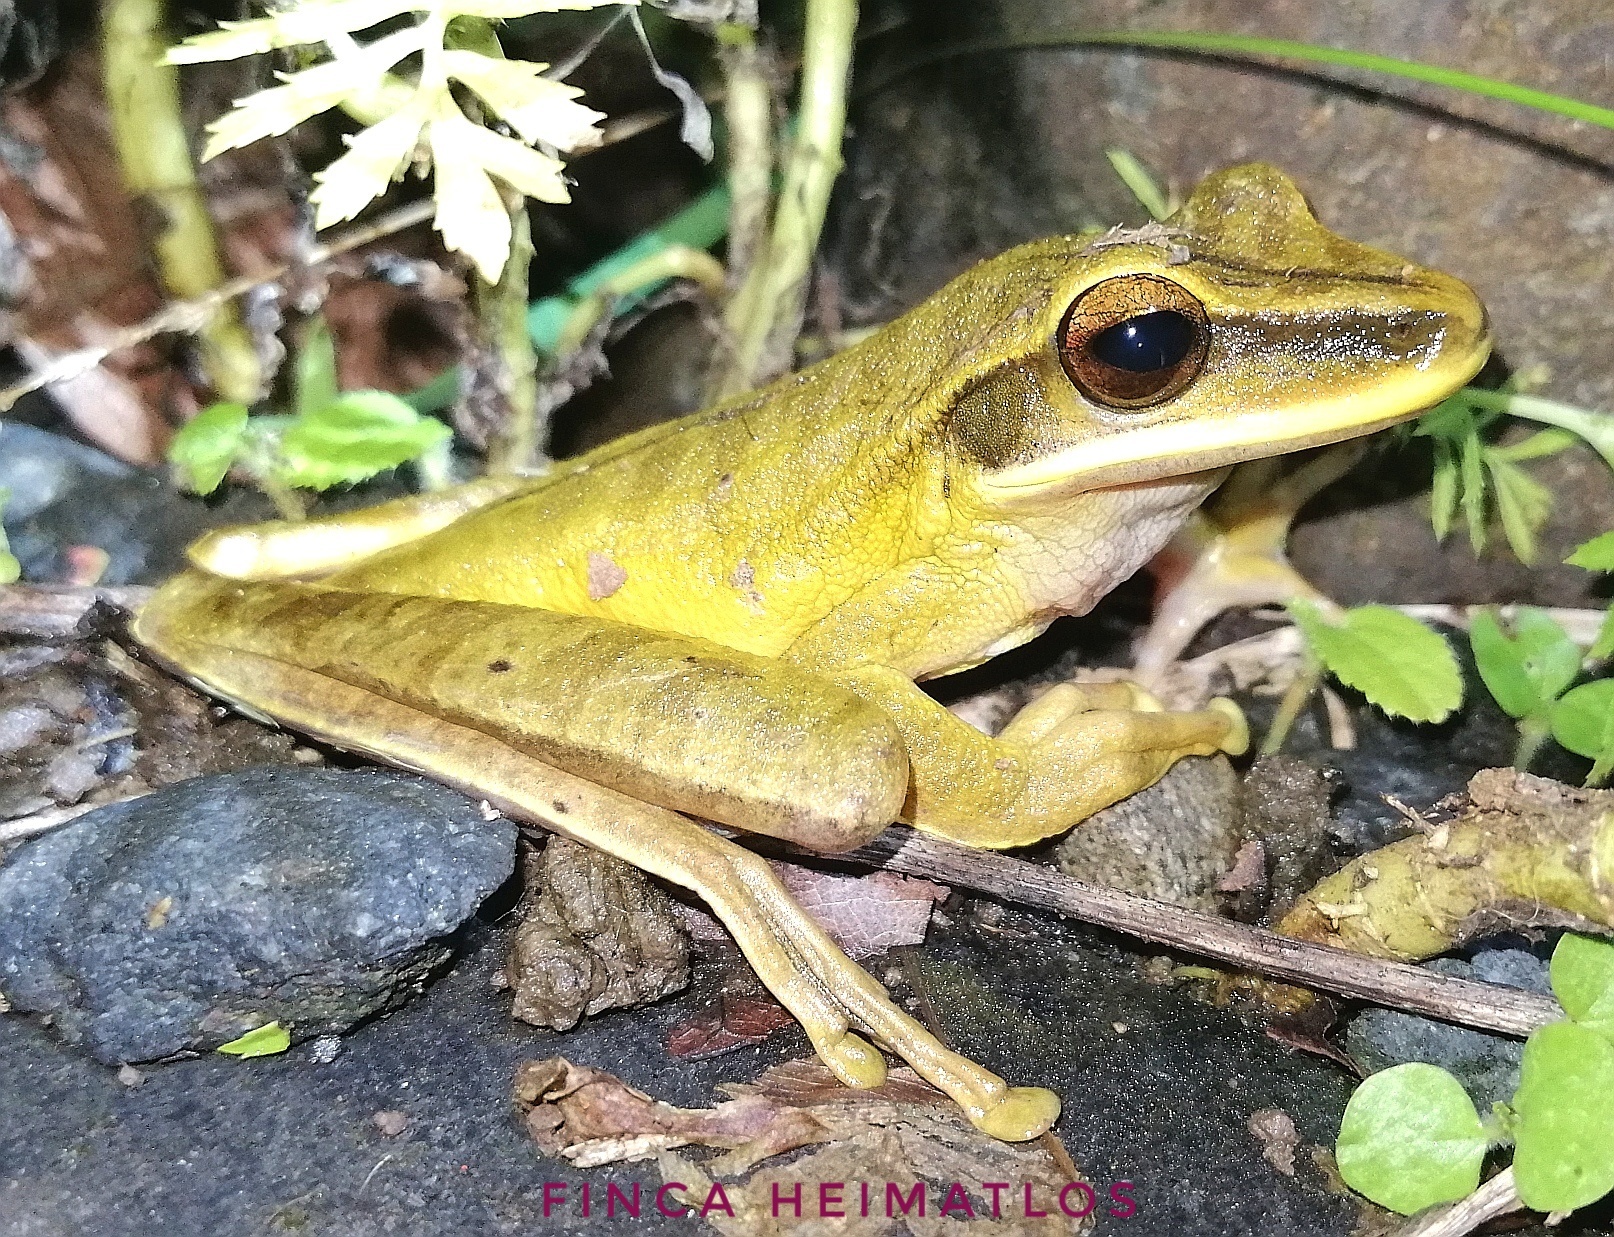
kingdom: Animalia
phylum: Chordata
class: Amphibia
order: Anura
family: Hylidae
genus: Boana
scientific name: Boana lanciformis
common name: Rana lanceolada commún
